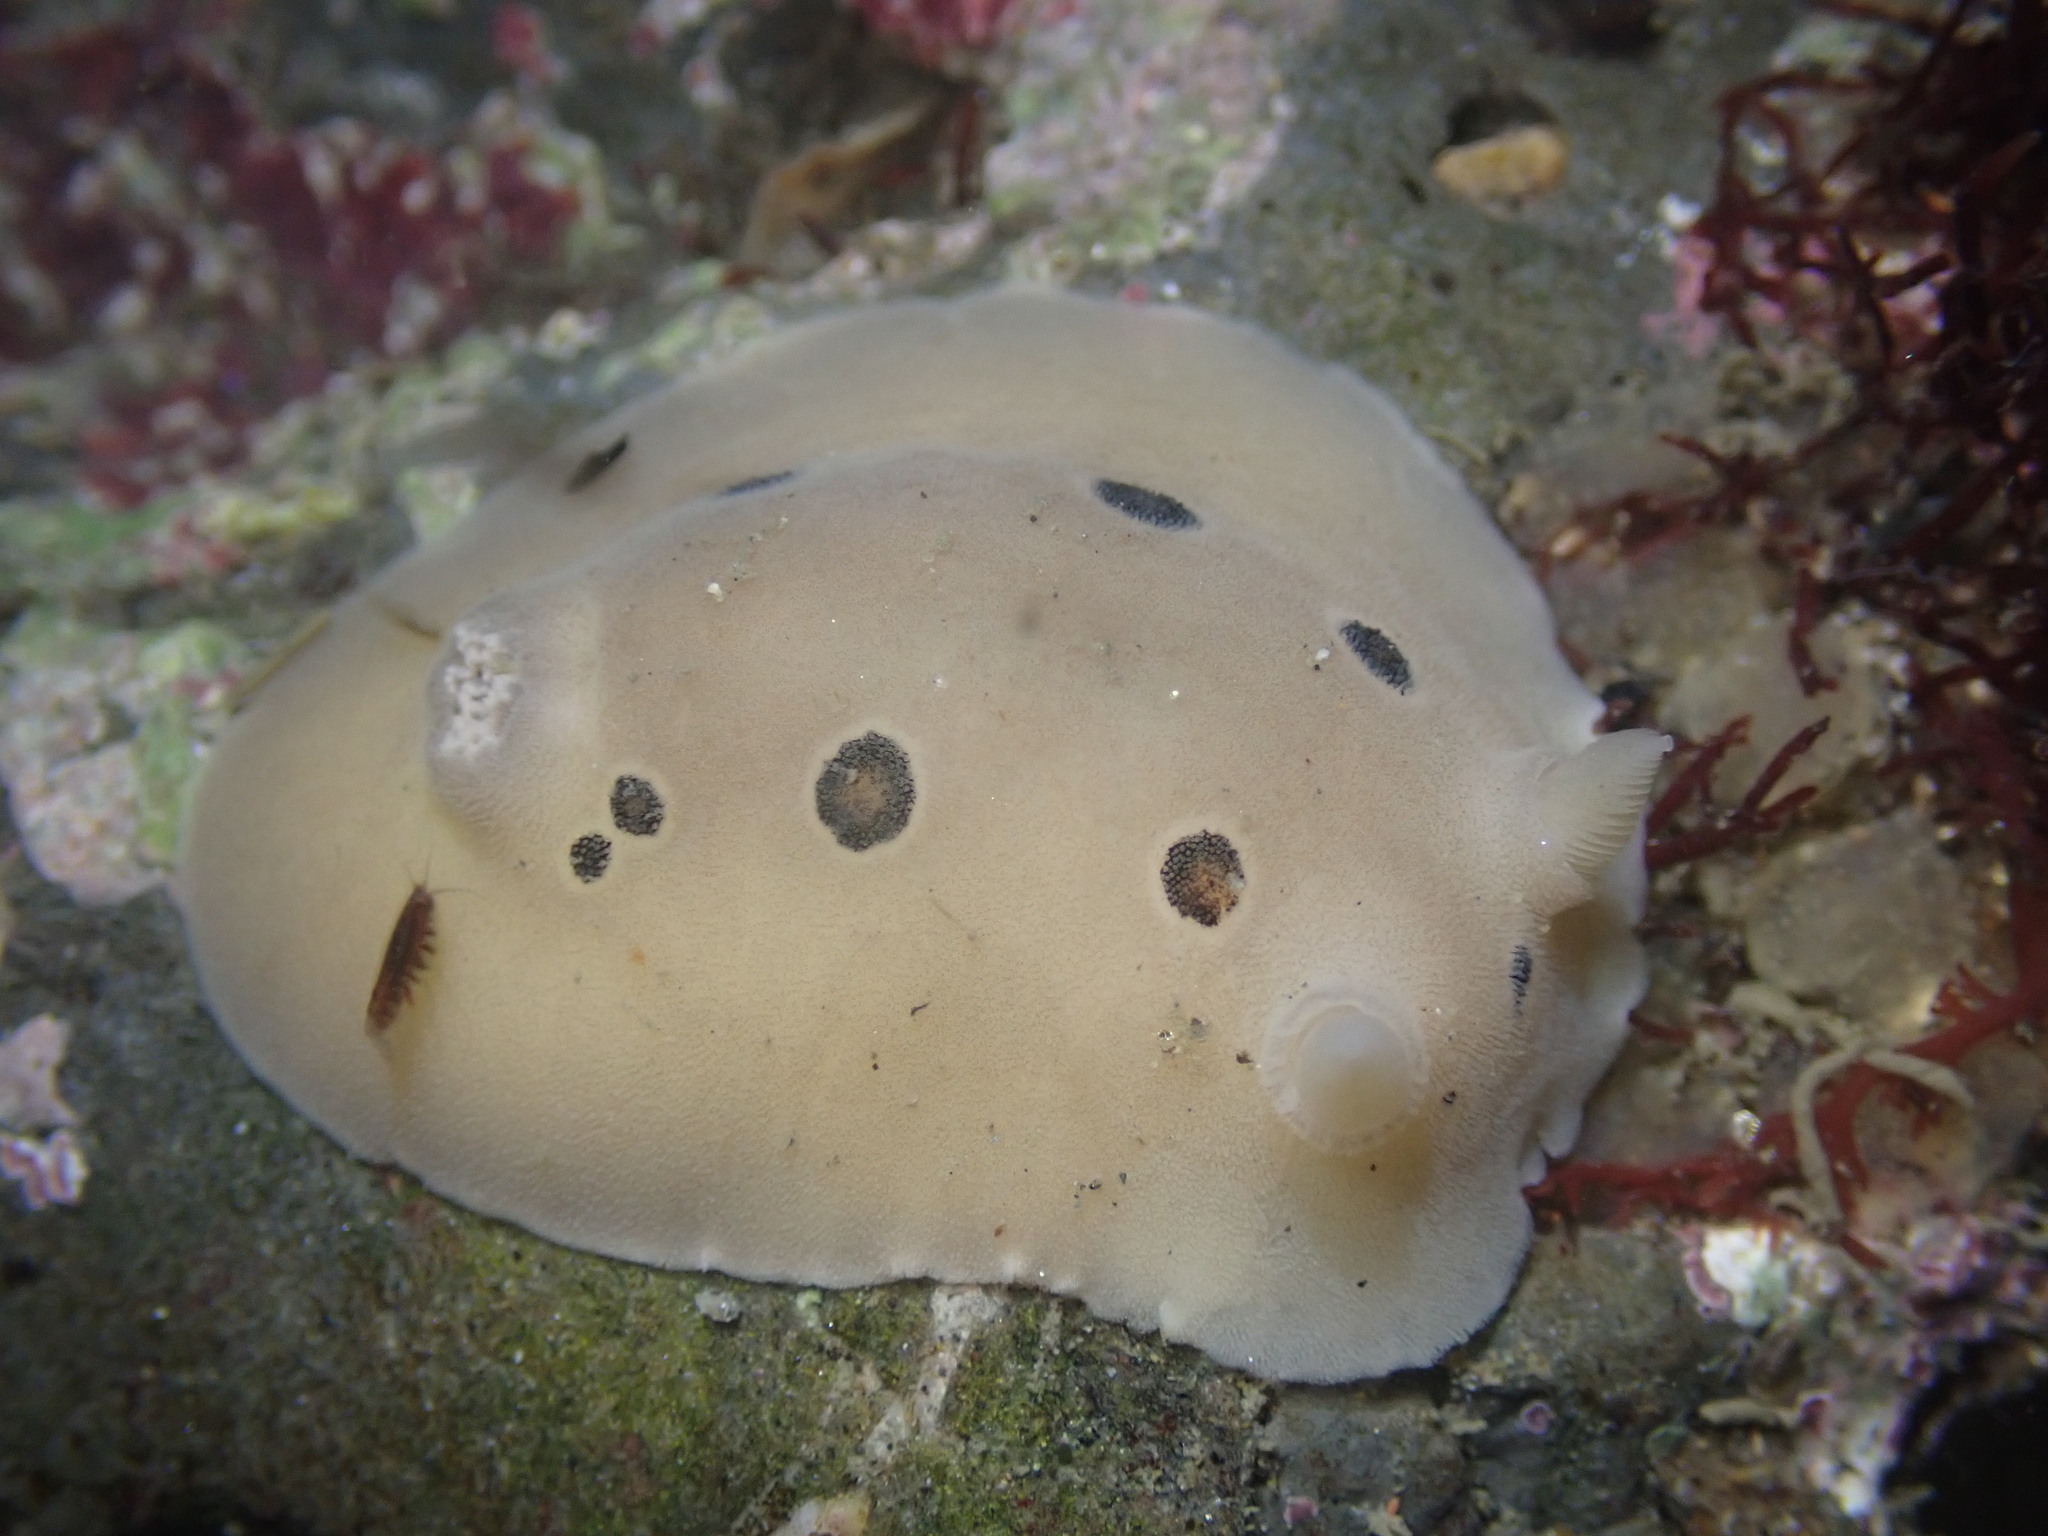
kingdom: Animalia
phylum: Mollusca
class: Gastropoda
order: Nudibranchia
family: Discodorididae
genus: Diaulula
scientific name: Diaulula sandiegensis
